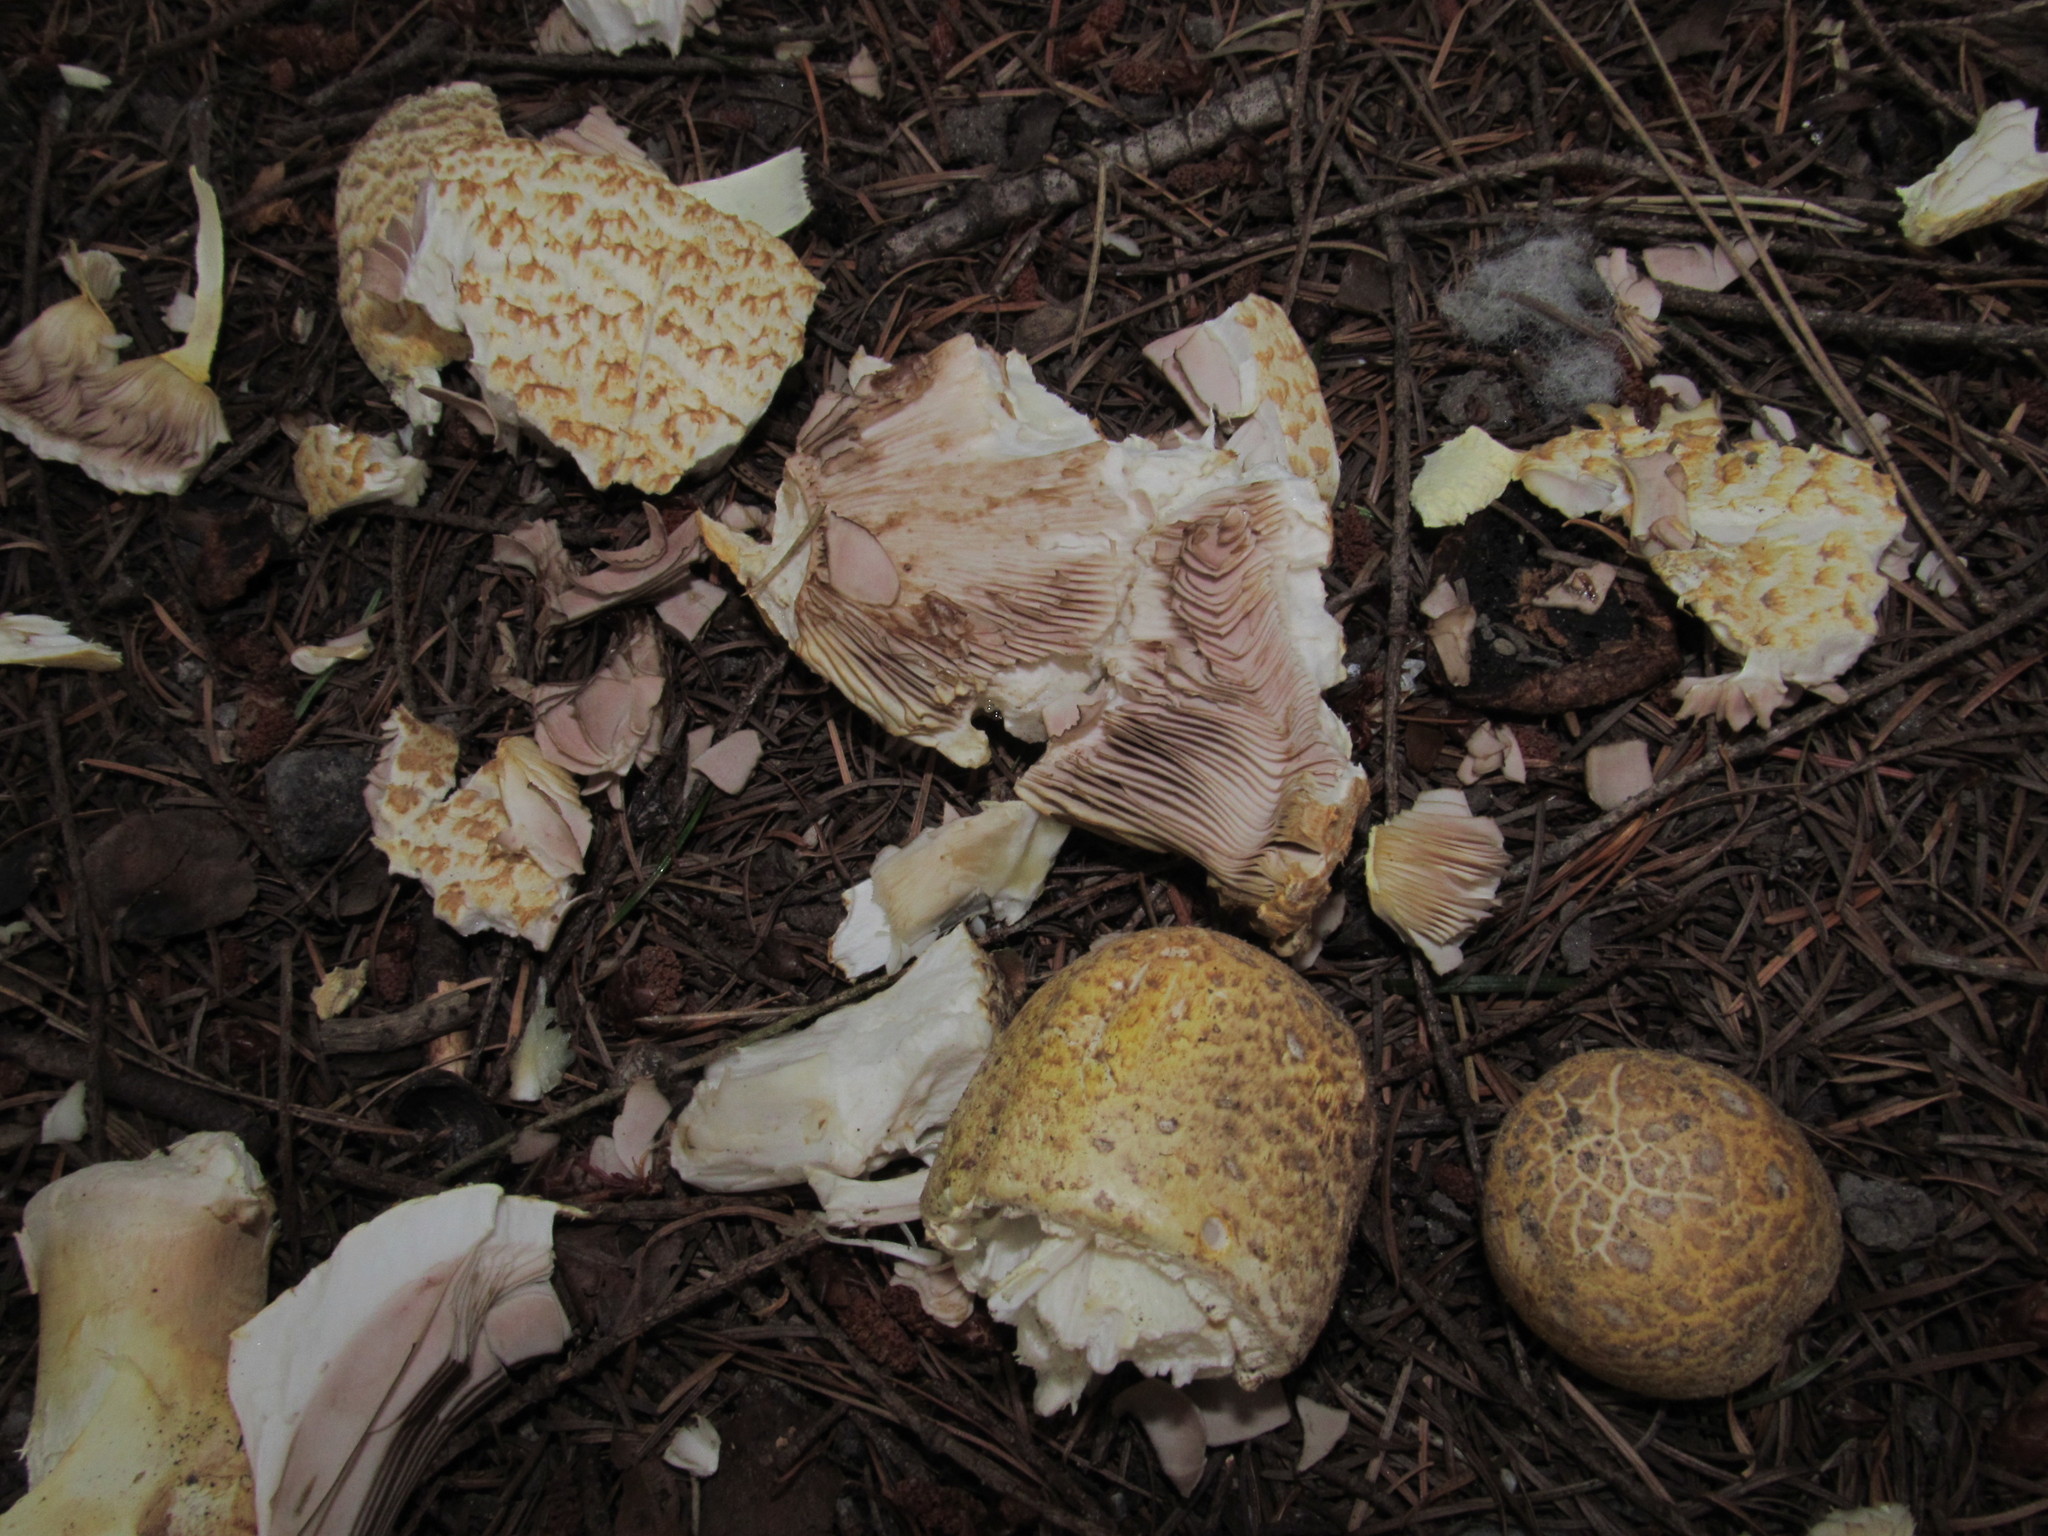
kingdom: Fungi
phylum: Basidiomycota
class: Agaricomycetes
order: Agaricales
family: Agaricaceae
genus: Agaricus
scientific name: Agaricus augustus
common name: Prince
